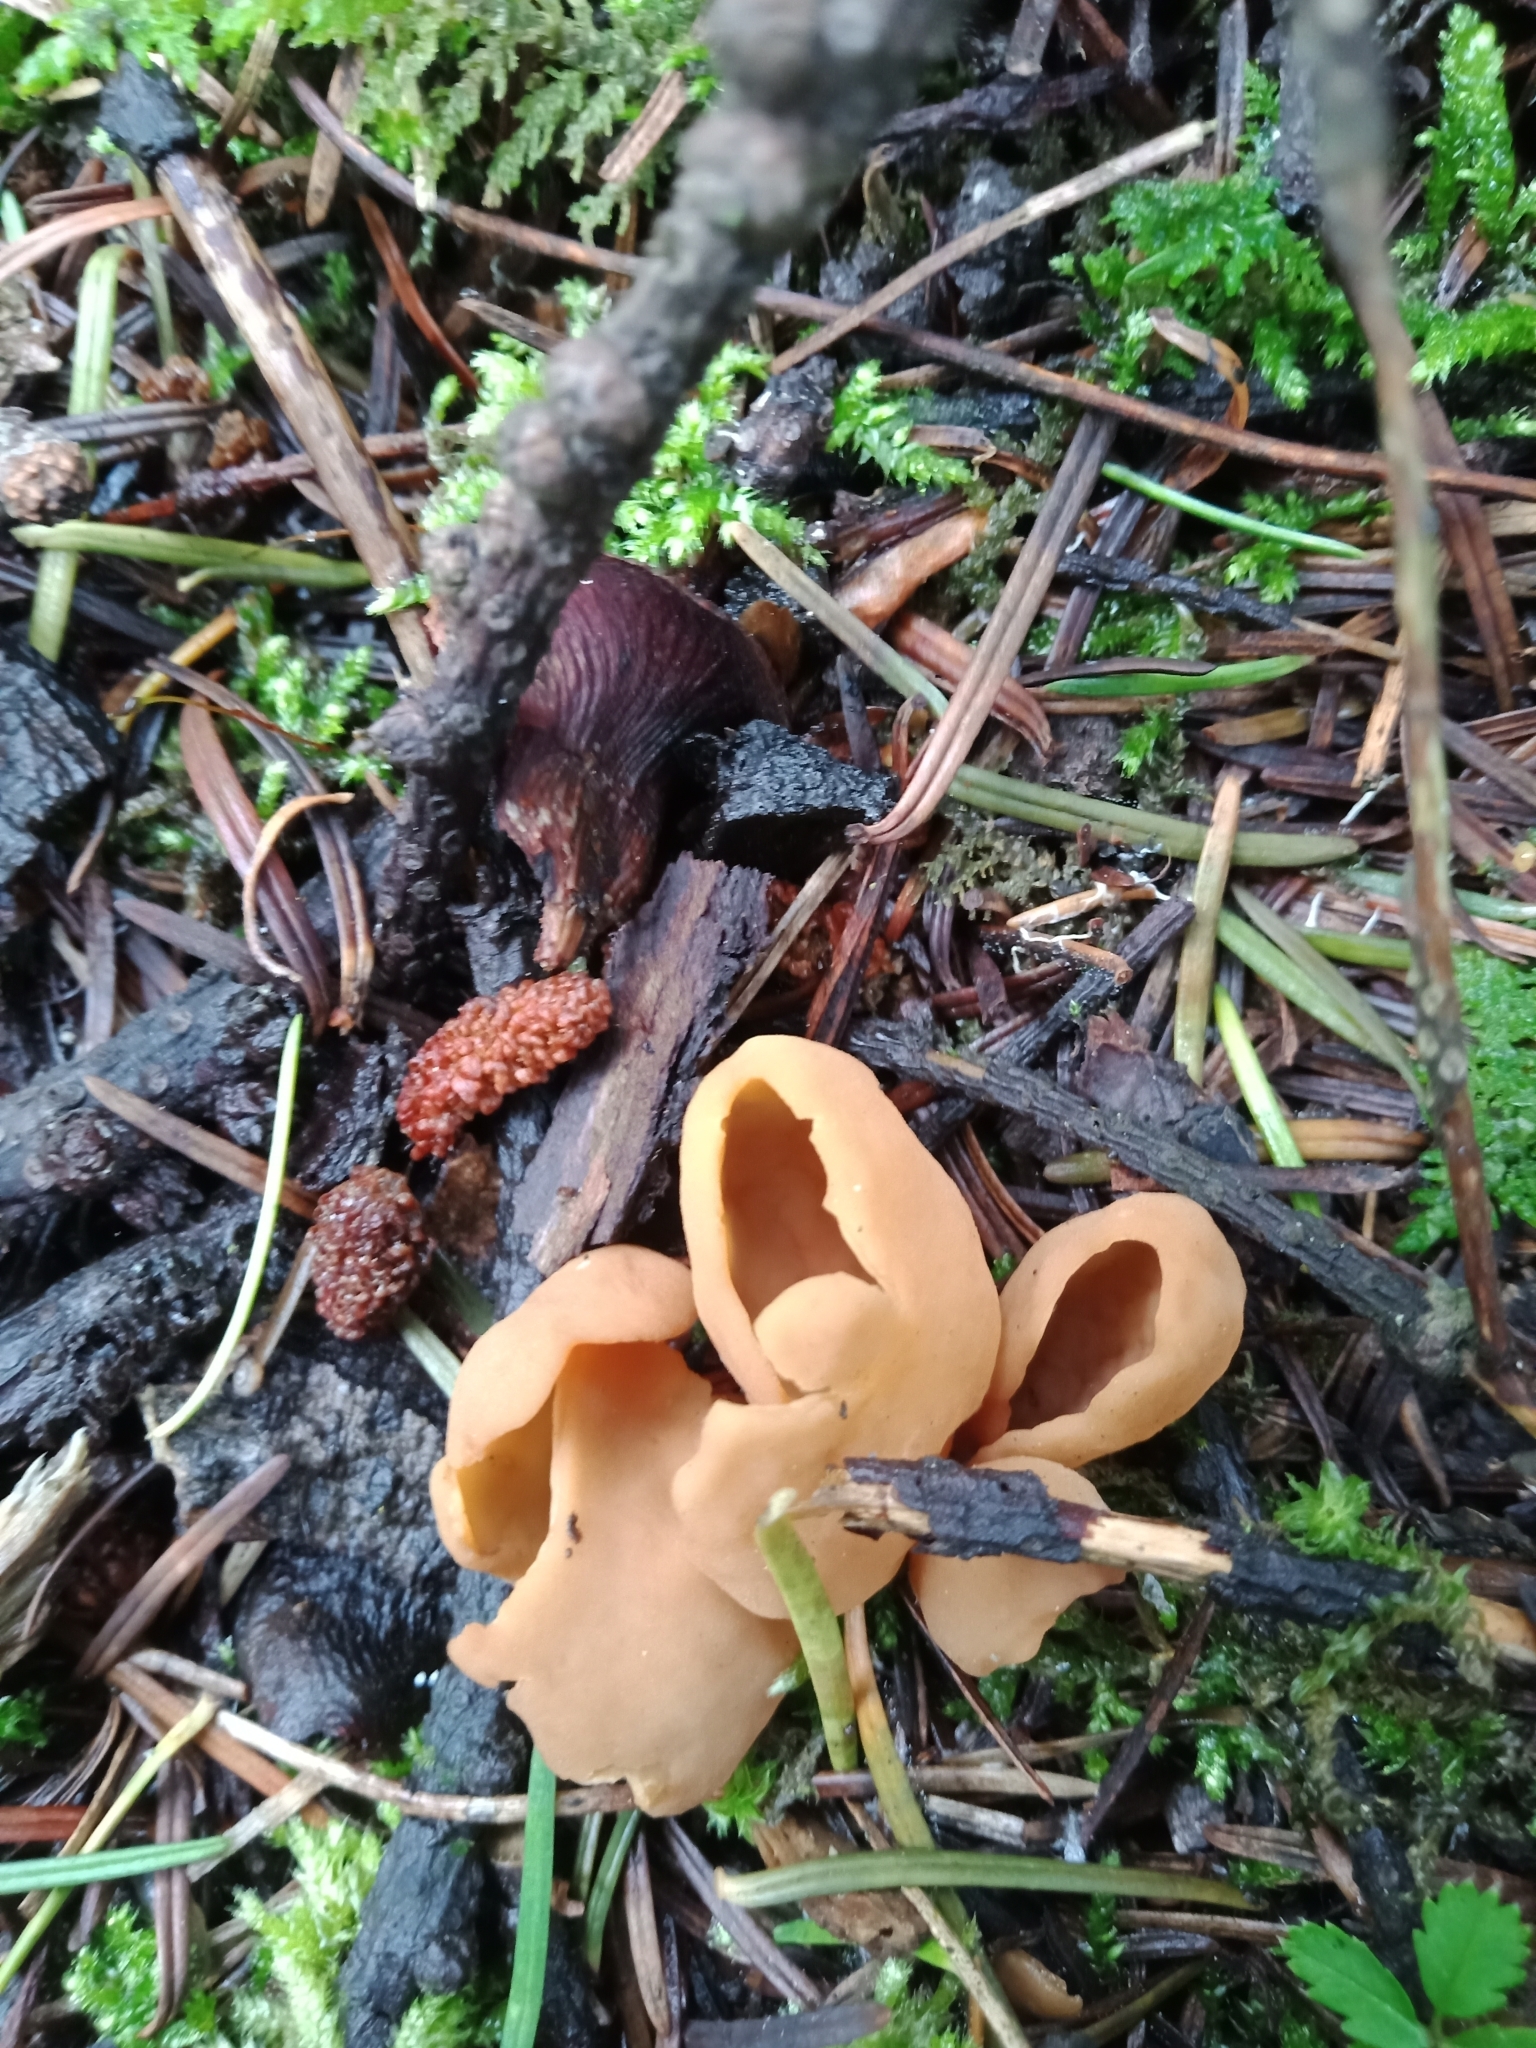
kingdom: Fungi
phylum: Ascomycota
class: Pezizomycetes
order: Pezizales
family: Pezizaceae
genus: Peziza
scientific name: Peziza vesiculosa
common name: Blistered cup
